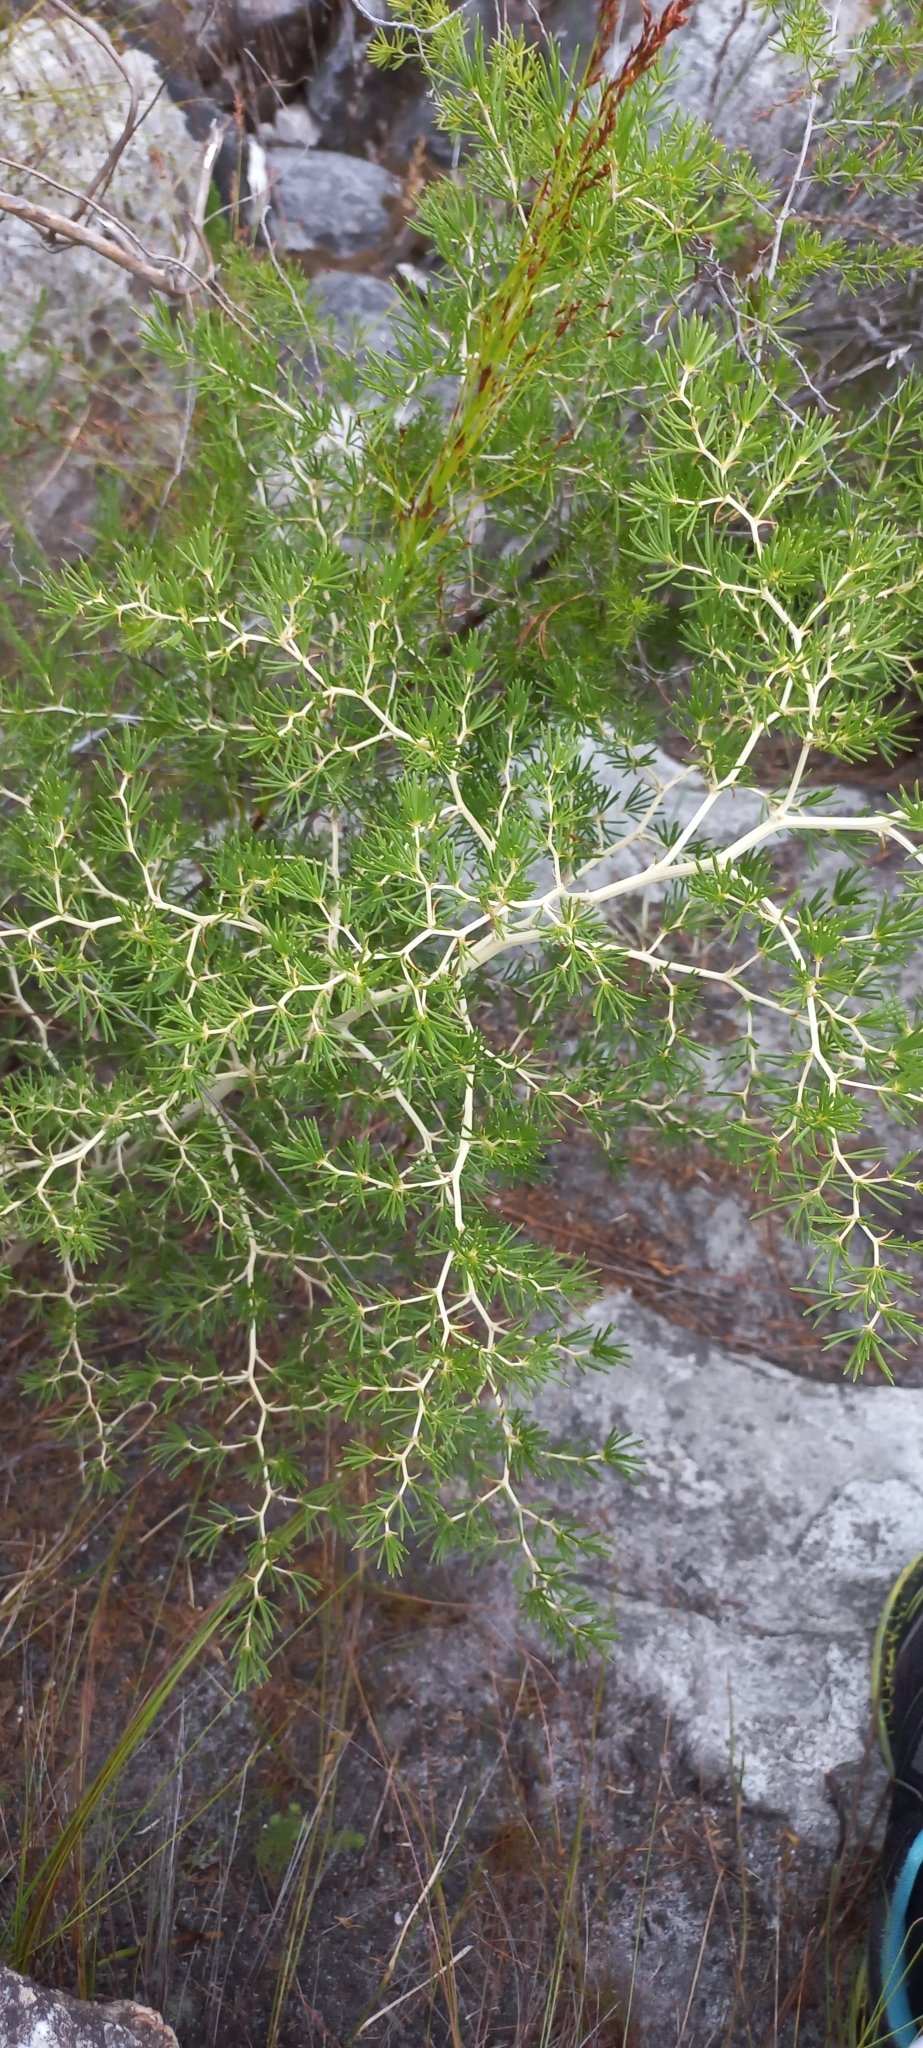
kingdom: Plantae
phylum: Tracheophyta
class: Liliopsida
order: Asparagales
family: Asparagaceae
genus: Asparagus
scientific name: Asparagus lignosus
